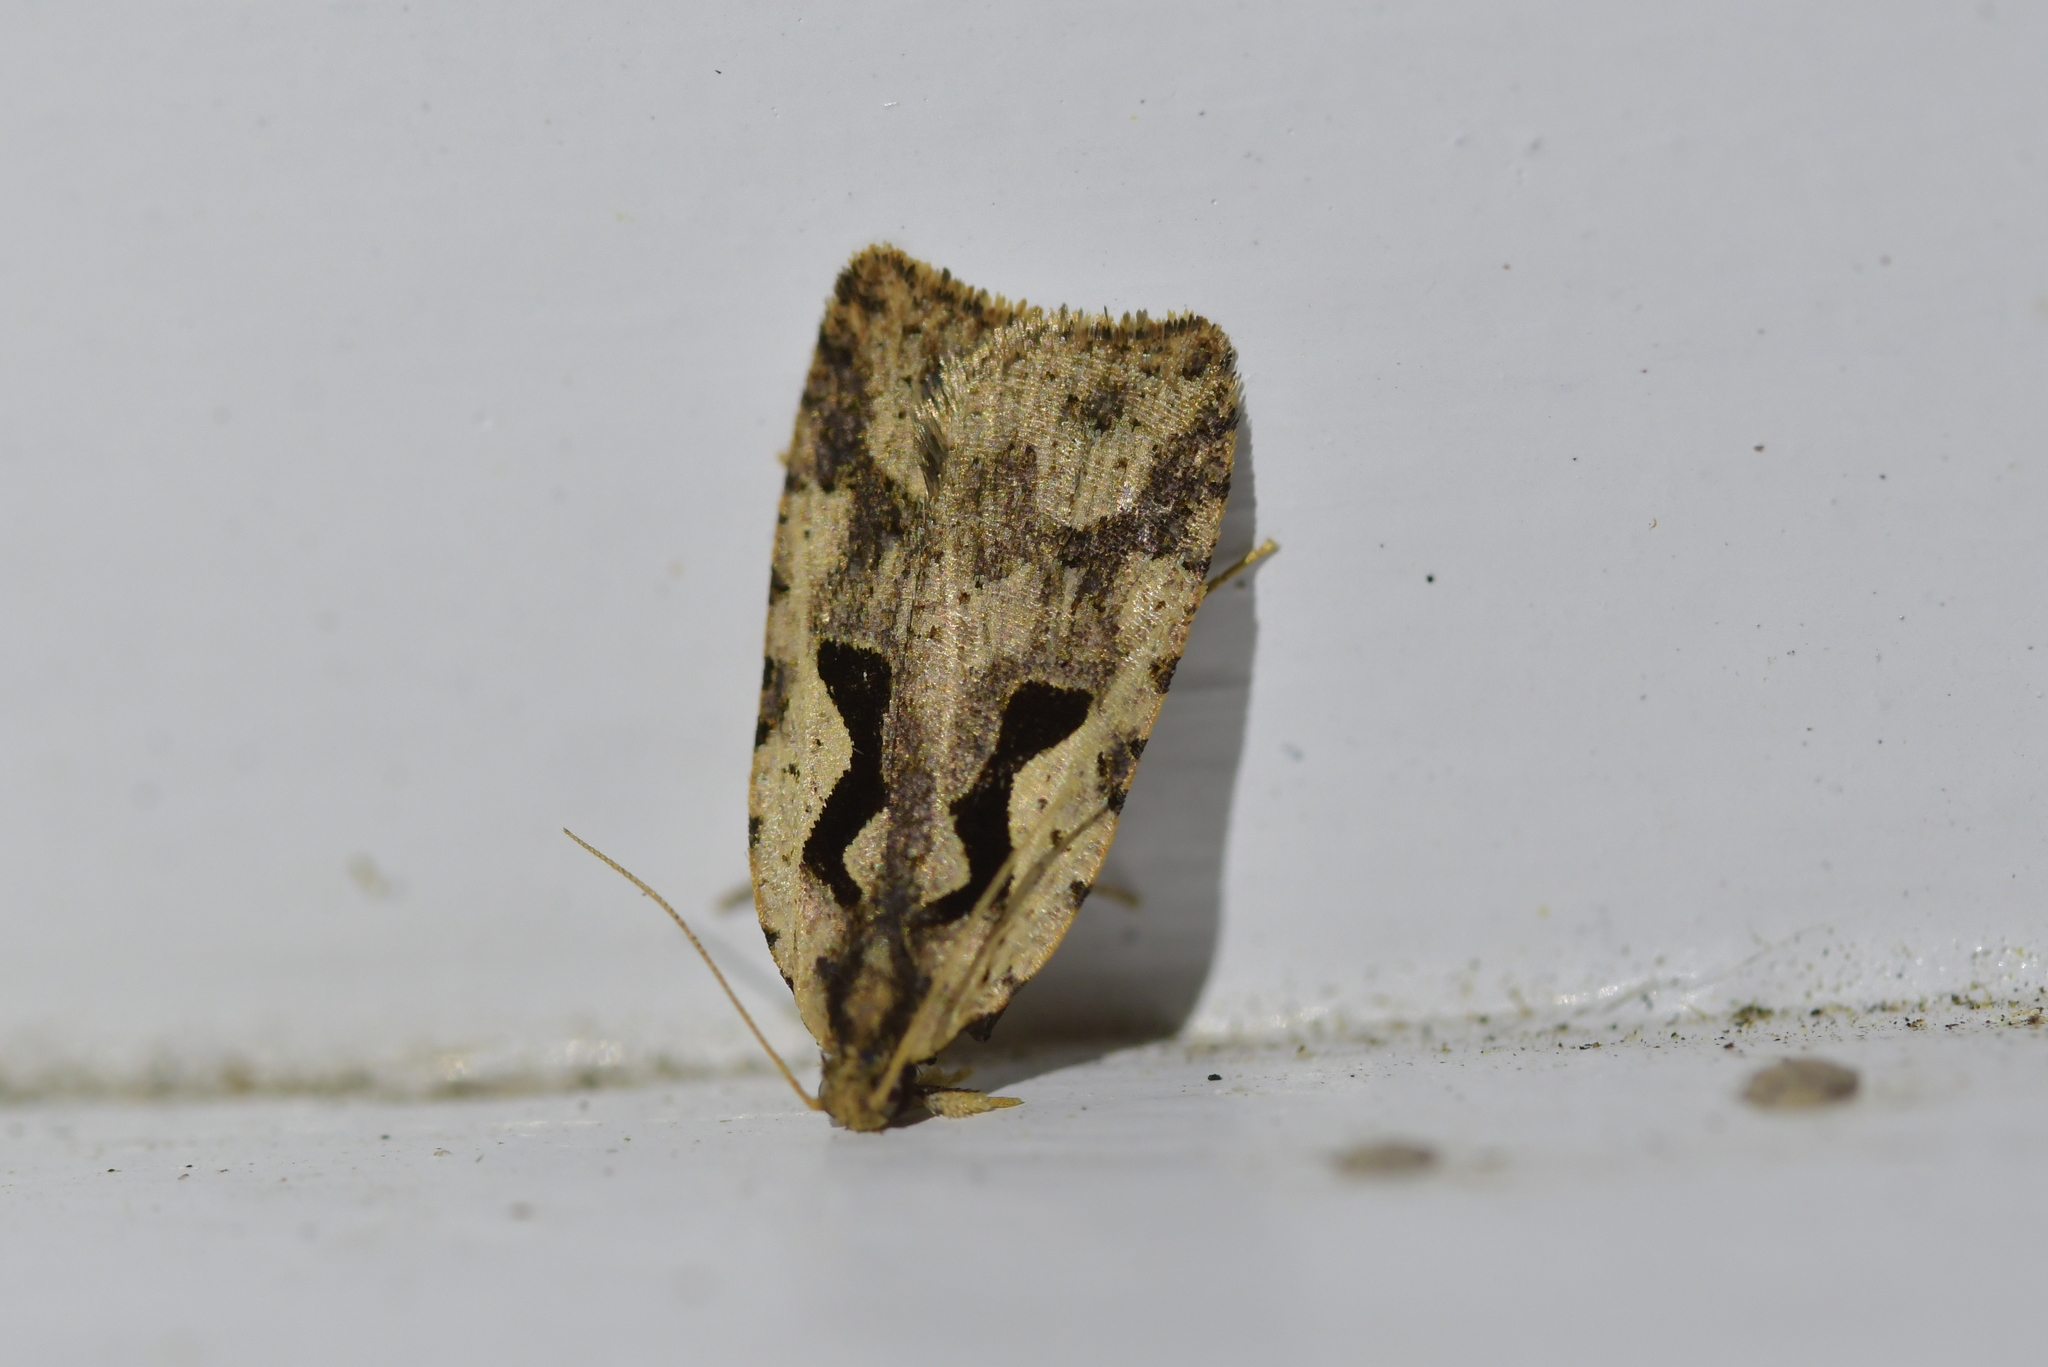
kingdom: Animalia
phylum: Arthropoda
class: Insecta
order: Lepidoptera
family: Tortricidae
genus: Cnephasia
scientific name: Cnephasia jactatana
